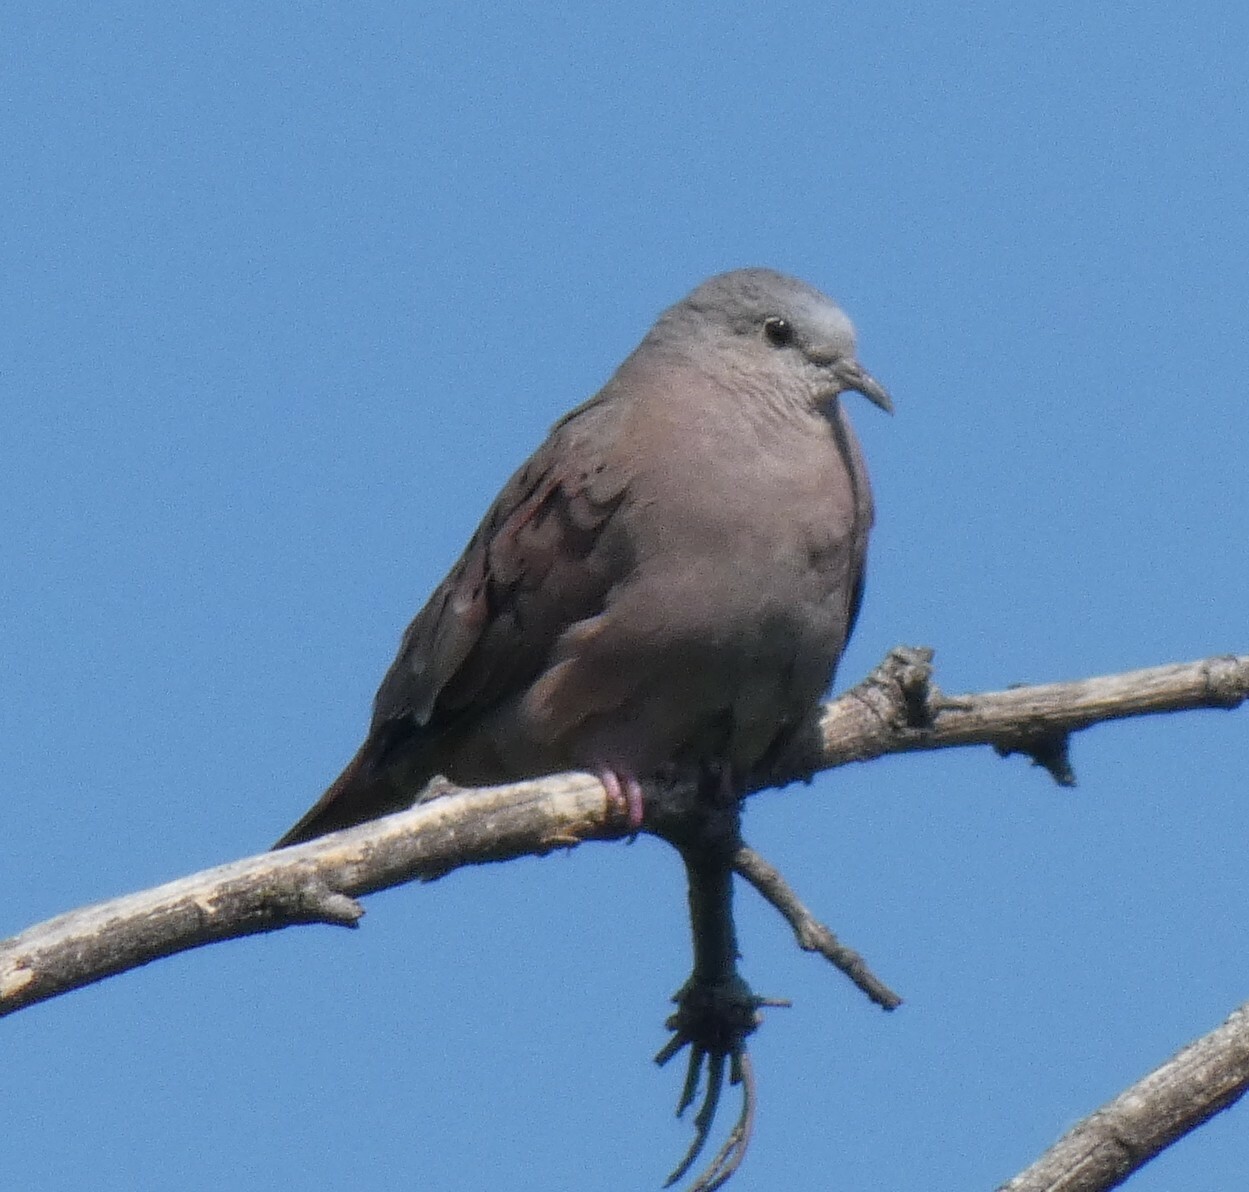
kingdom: Animalia
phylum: Chordata
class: Aves
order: Columbiformes
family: Columbidae
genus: Columbina
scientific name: Columbina talpacoti
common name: Ruddy ground dove
